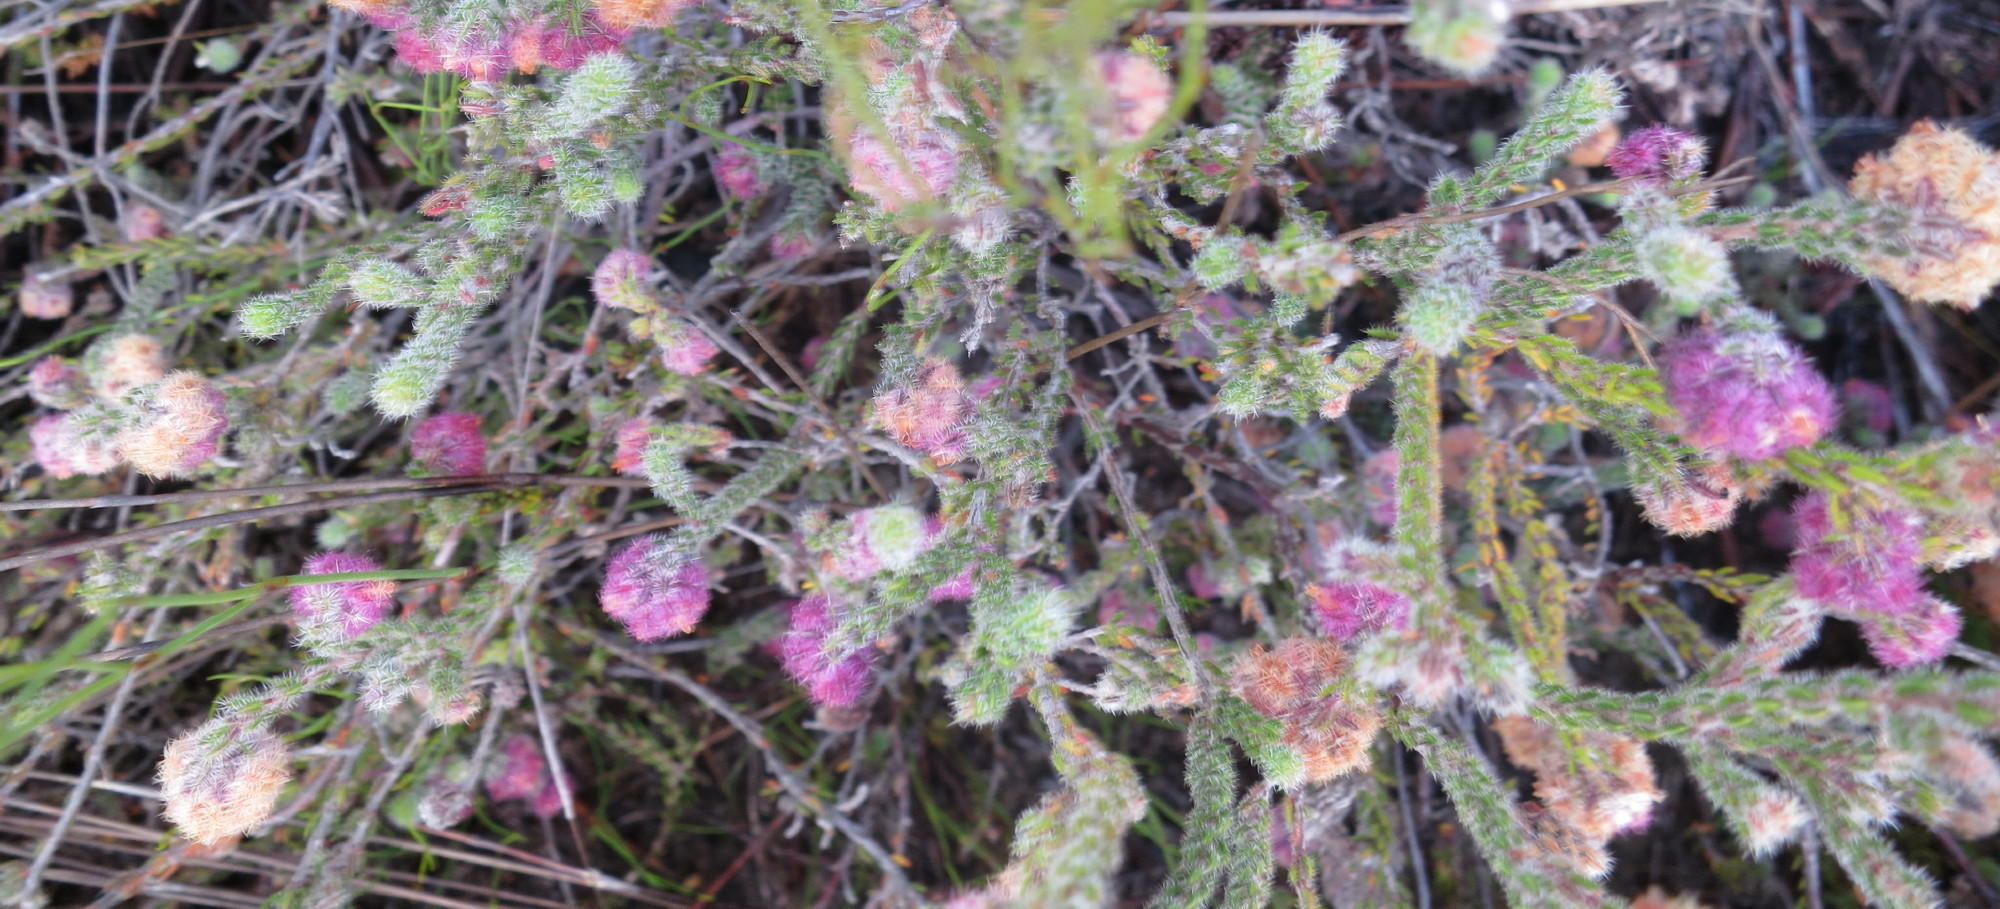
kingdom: Plantae
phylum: Tracheophyta
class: Magnoliopsida
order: Ericales
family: Ericaceae
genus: Erica
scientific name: Erica solandra
